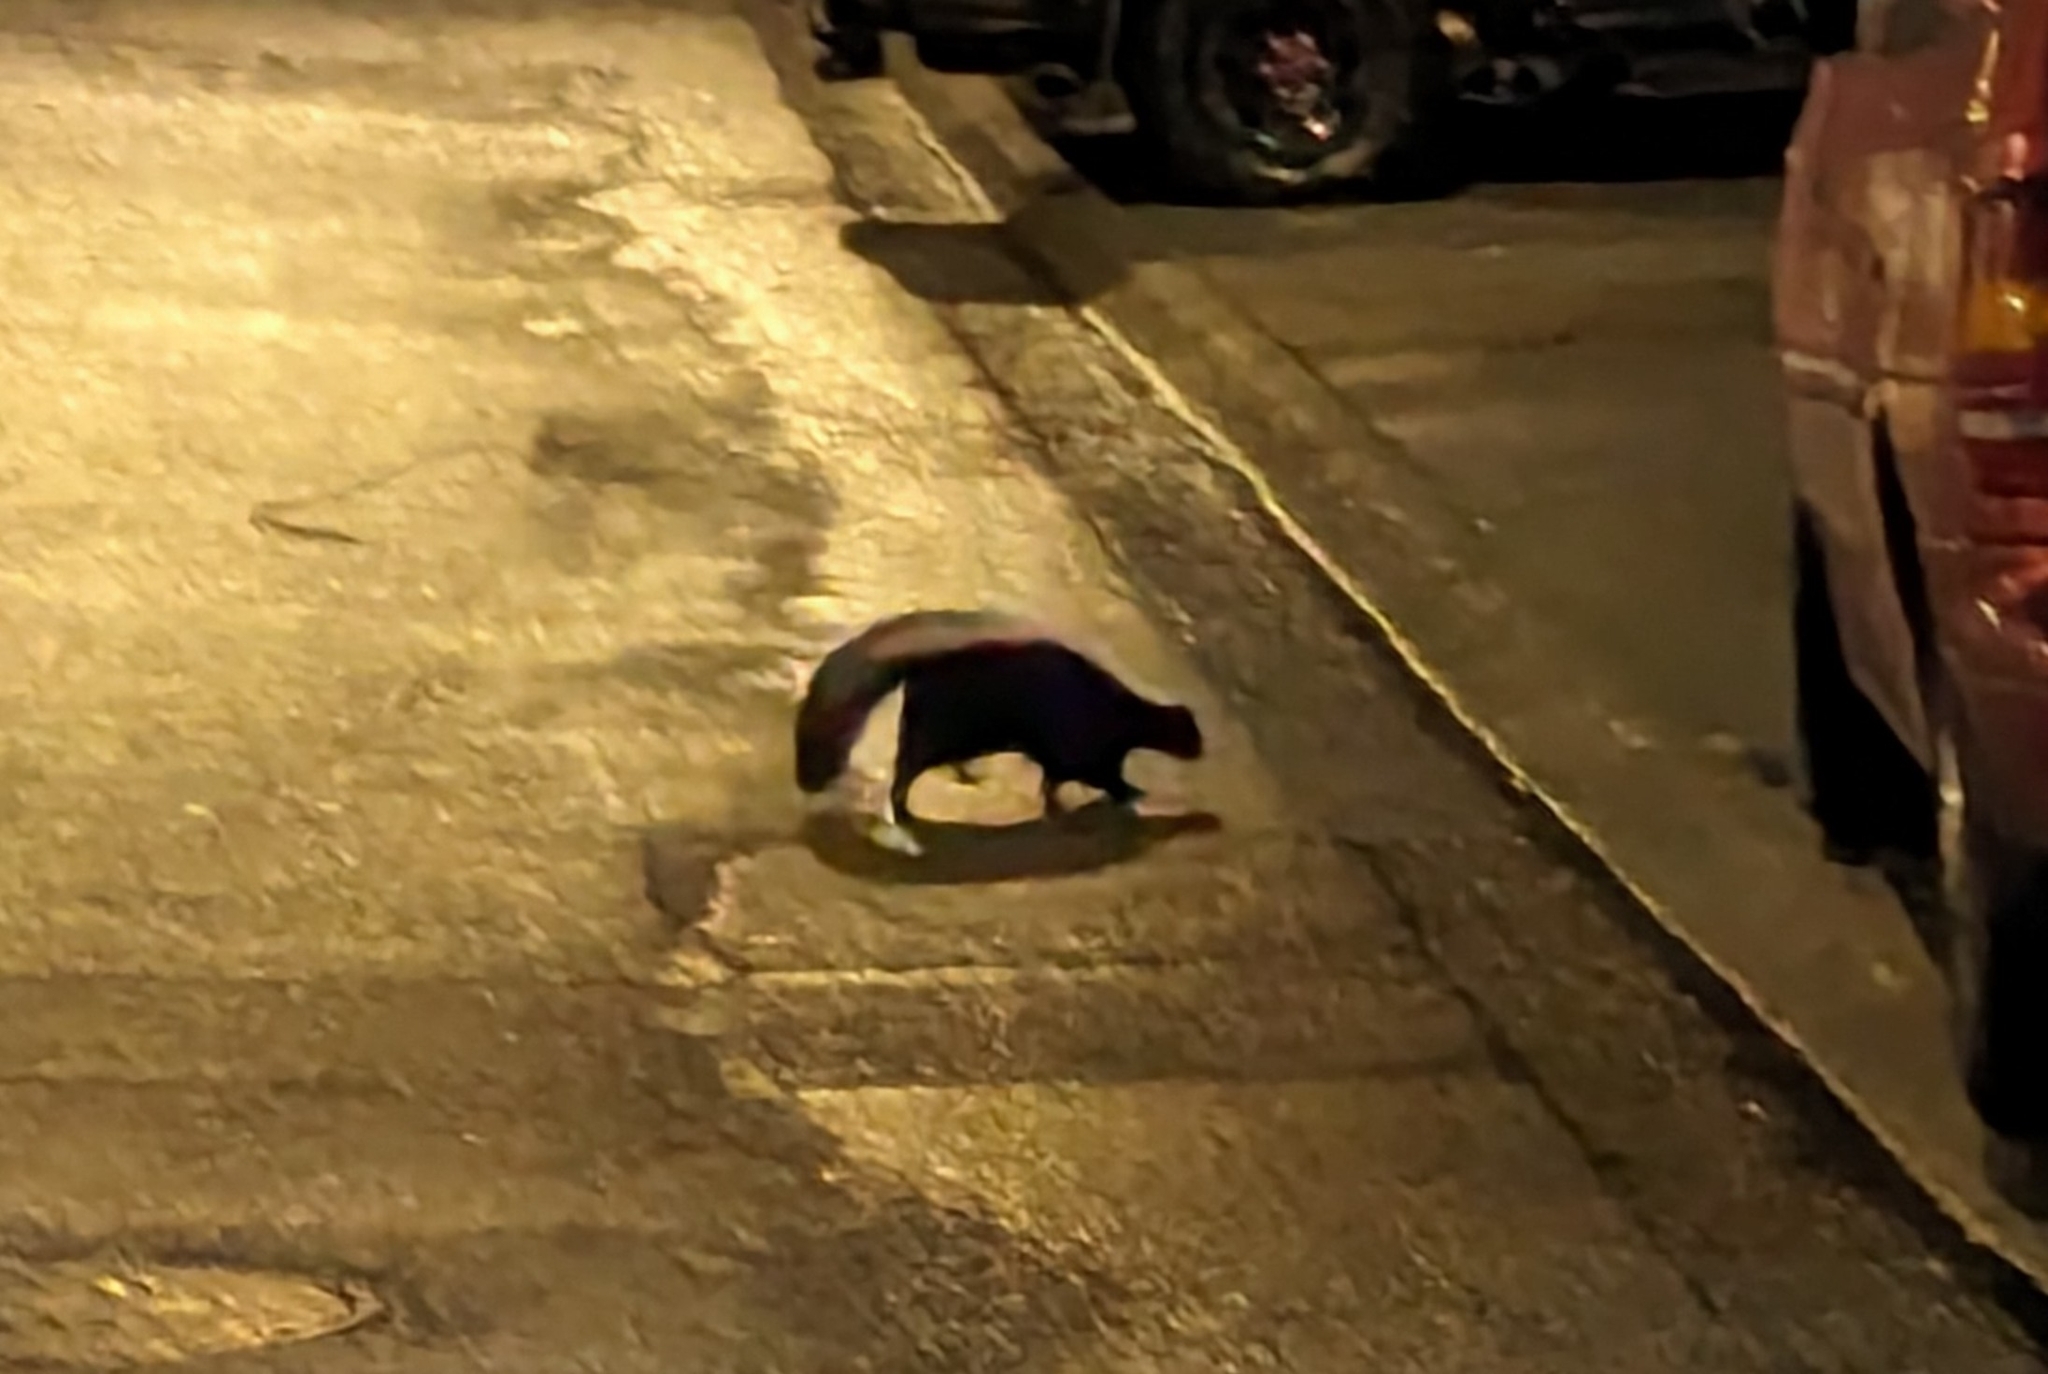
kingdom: Animalia
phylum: Chordata
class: Mammalia
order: Carnivora
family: Mephitidae
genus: Mephitis
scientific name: Mephitis mephitis
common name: Striped skunk
